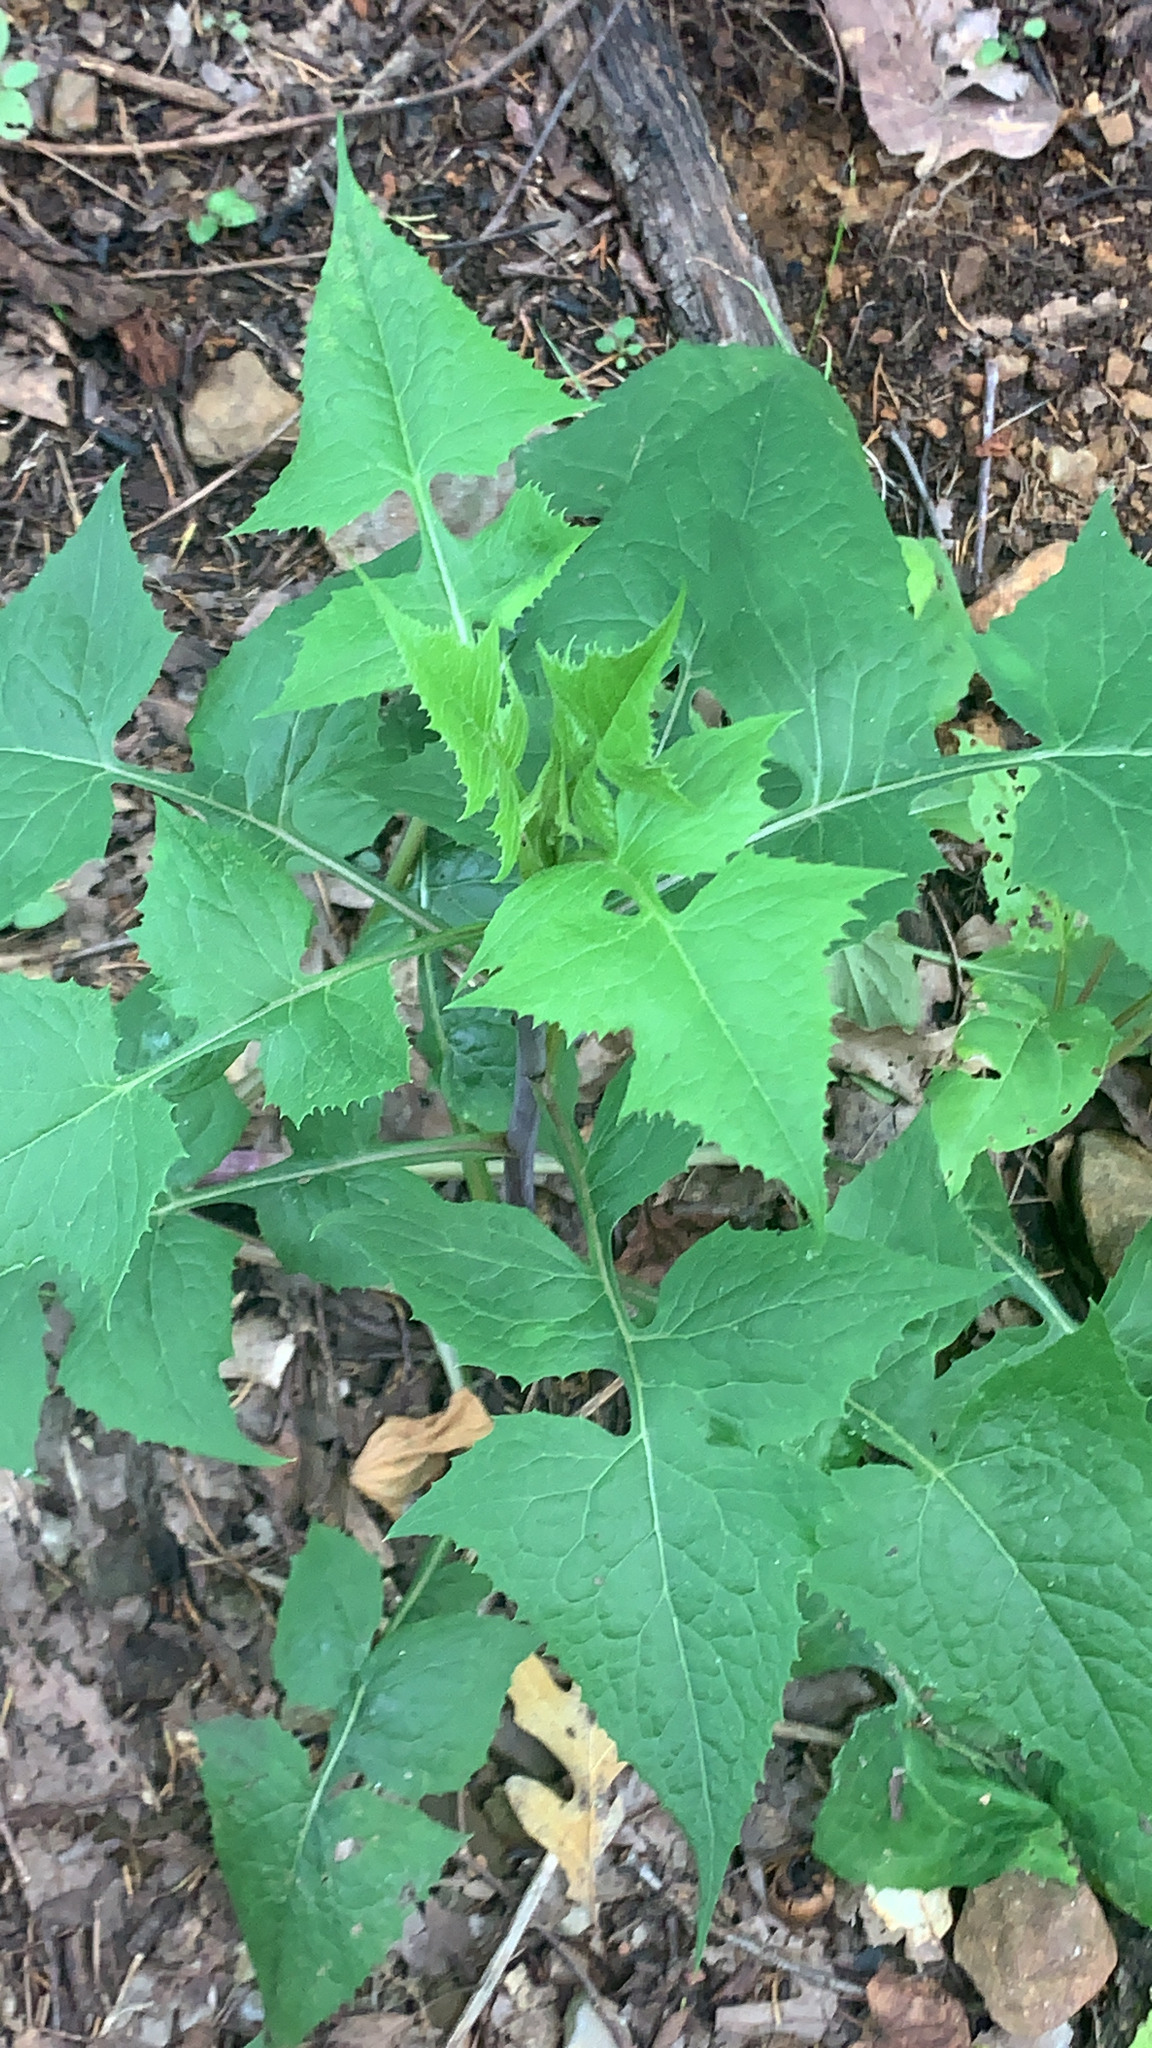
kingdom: Plantae
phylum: Tracheophyta
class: Magnoliopsida
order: Asterales
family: Asteraceae
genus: Lactuca
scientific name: Lactuca floridana
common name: Woodland lettuce
